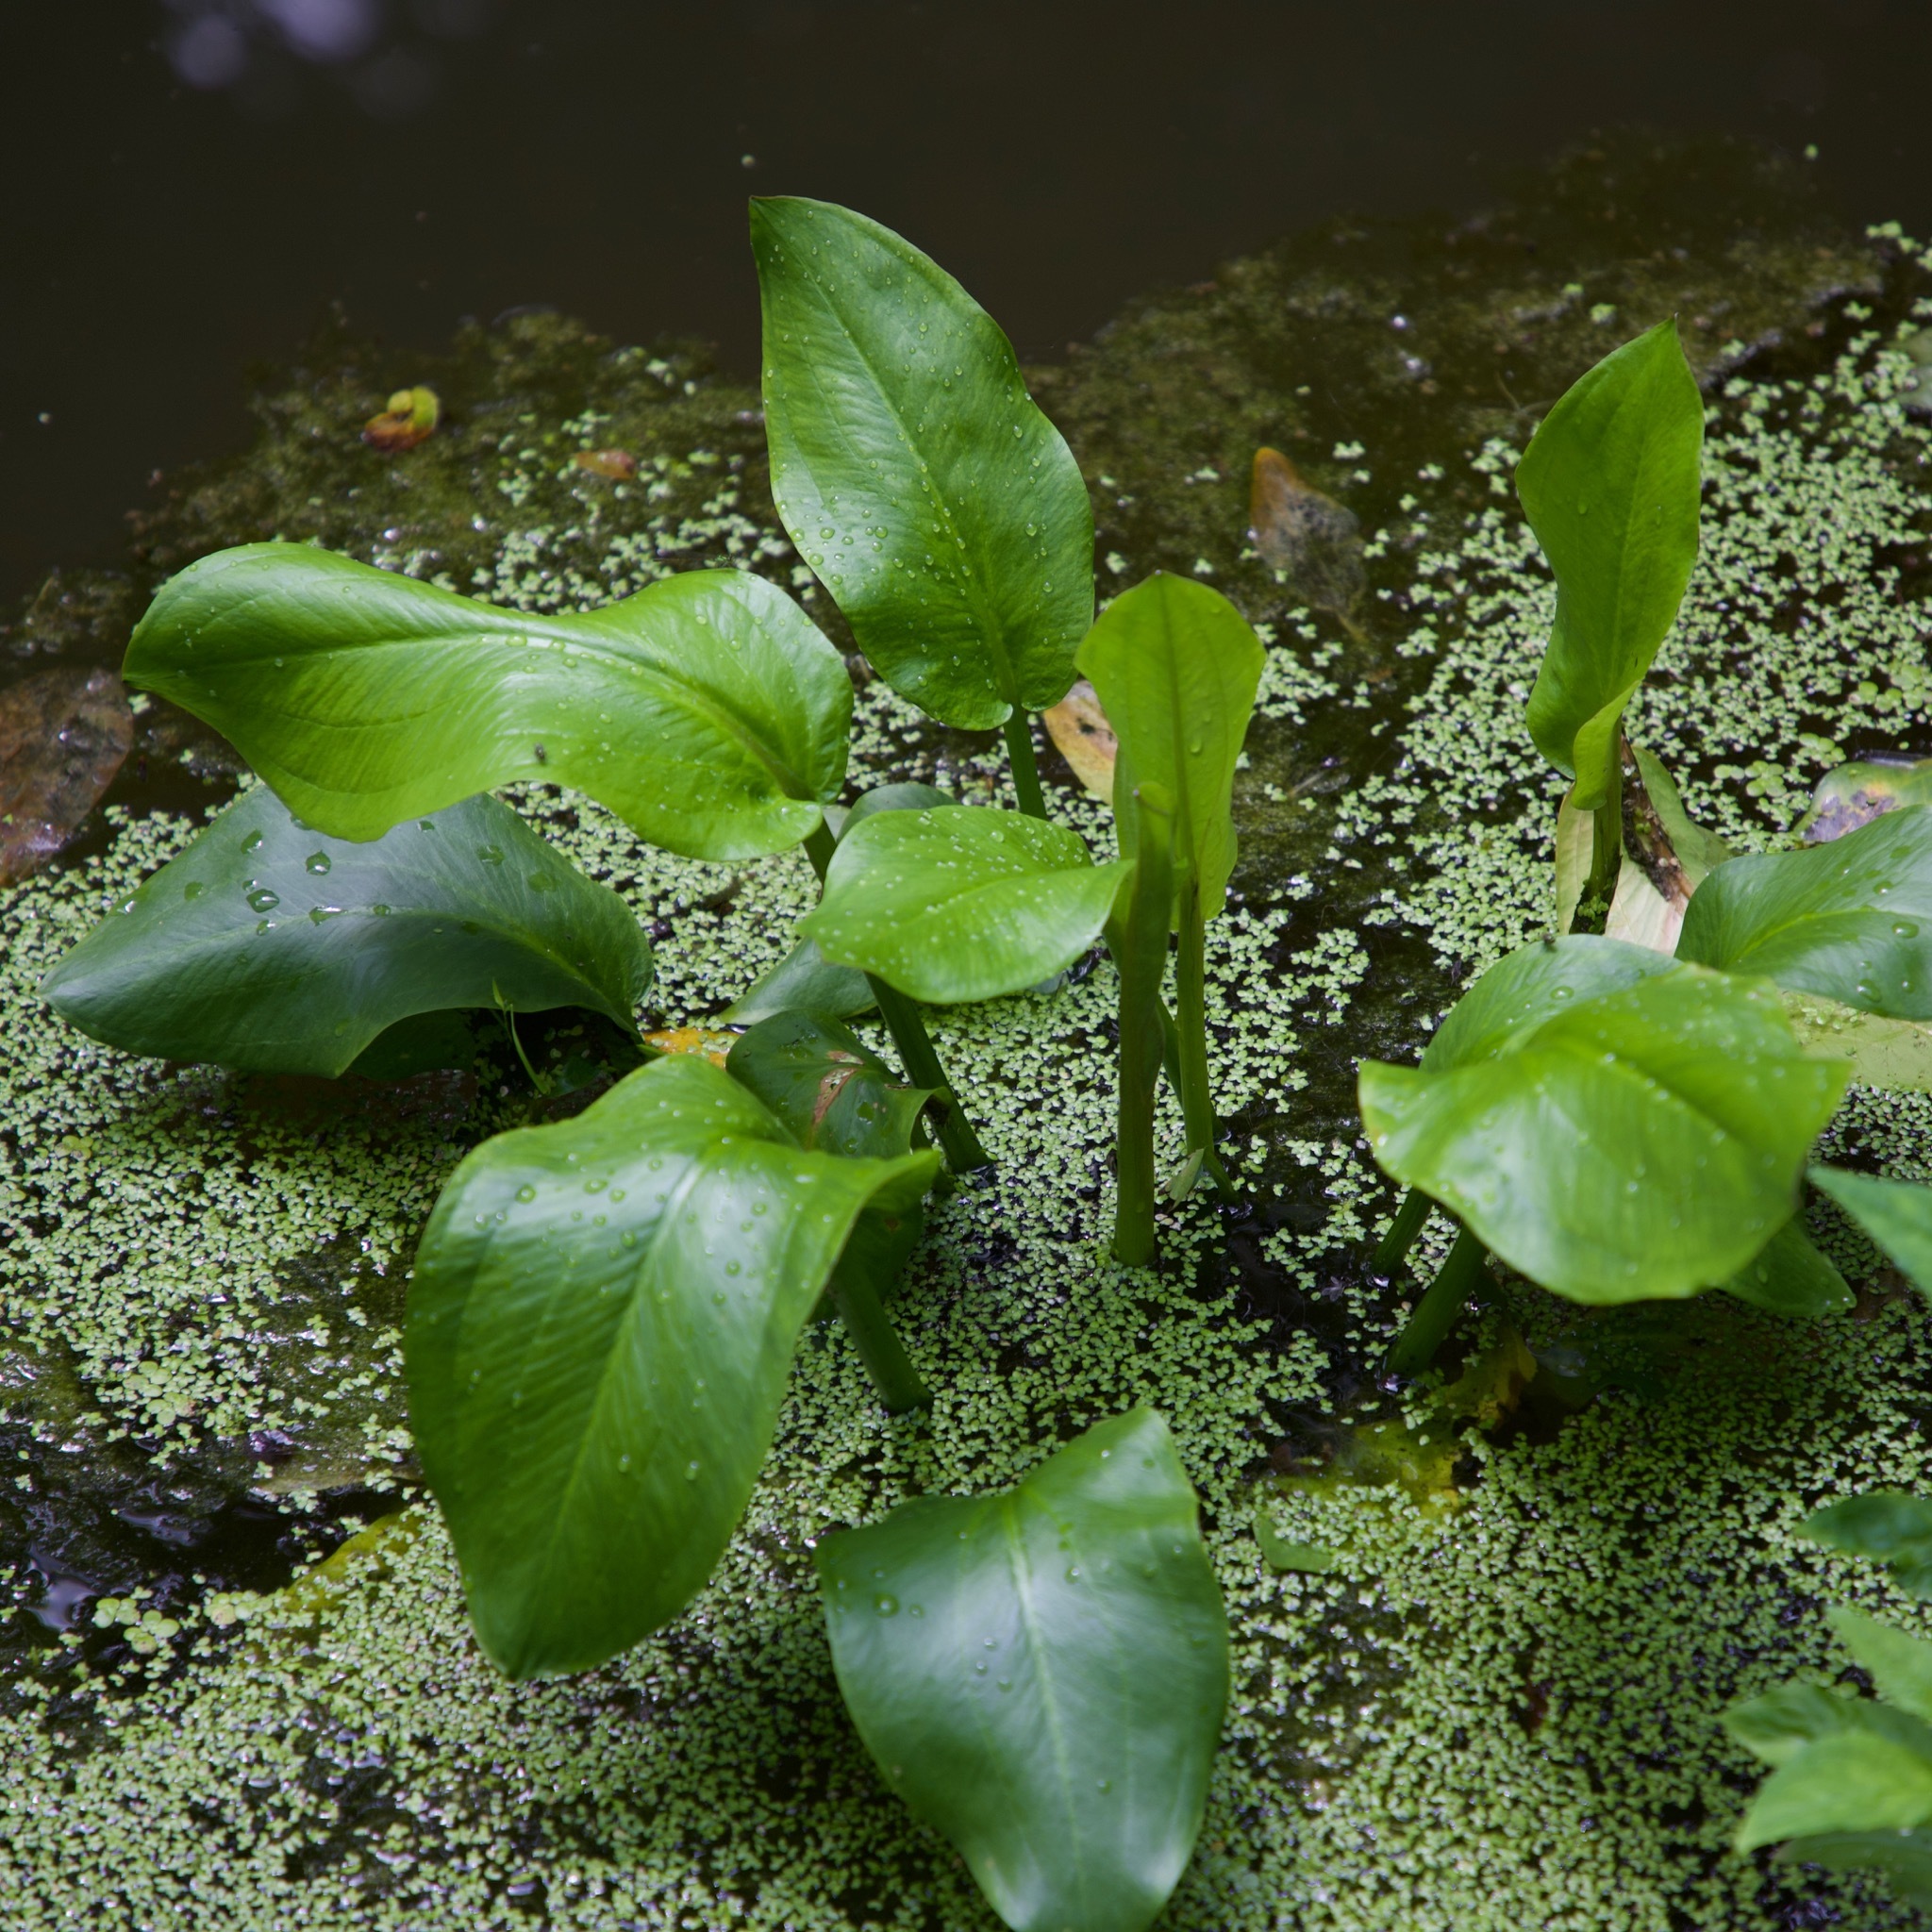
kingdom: Plantae
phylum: Tracheophyta
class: Liliopsida
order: Alismatales
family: Alismataceae
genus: Alisma
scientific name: Alisma subcordatum
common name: Southern water-plantain
